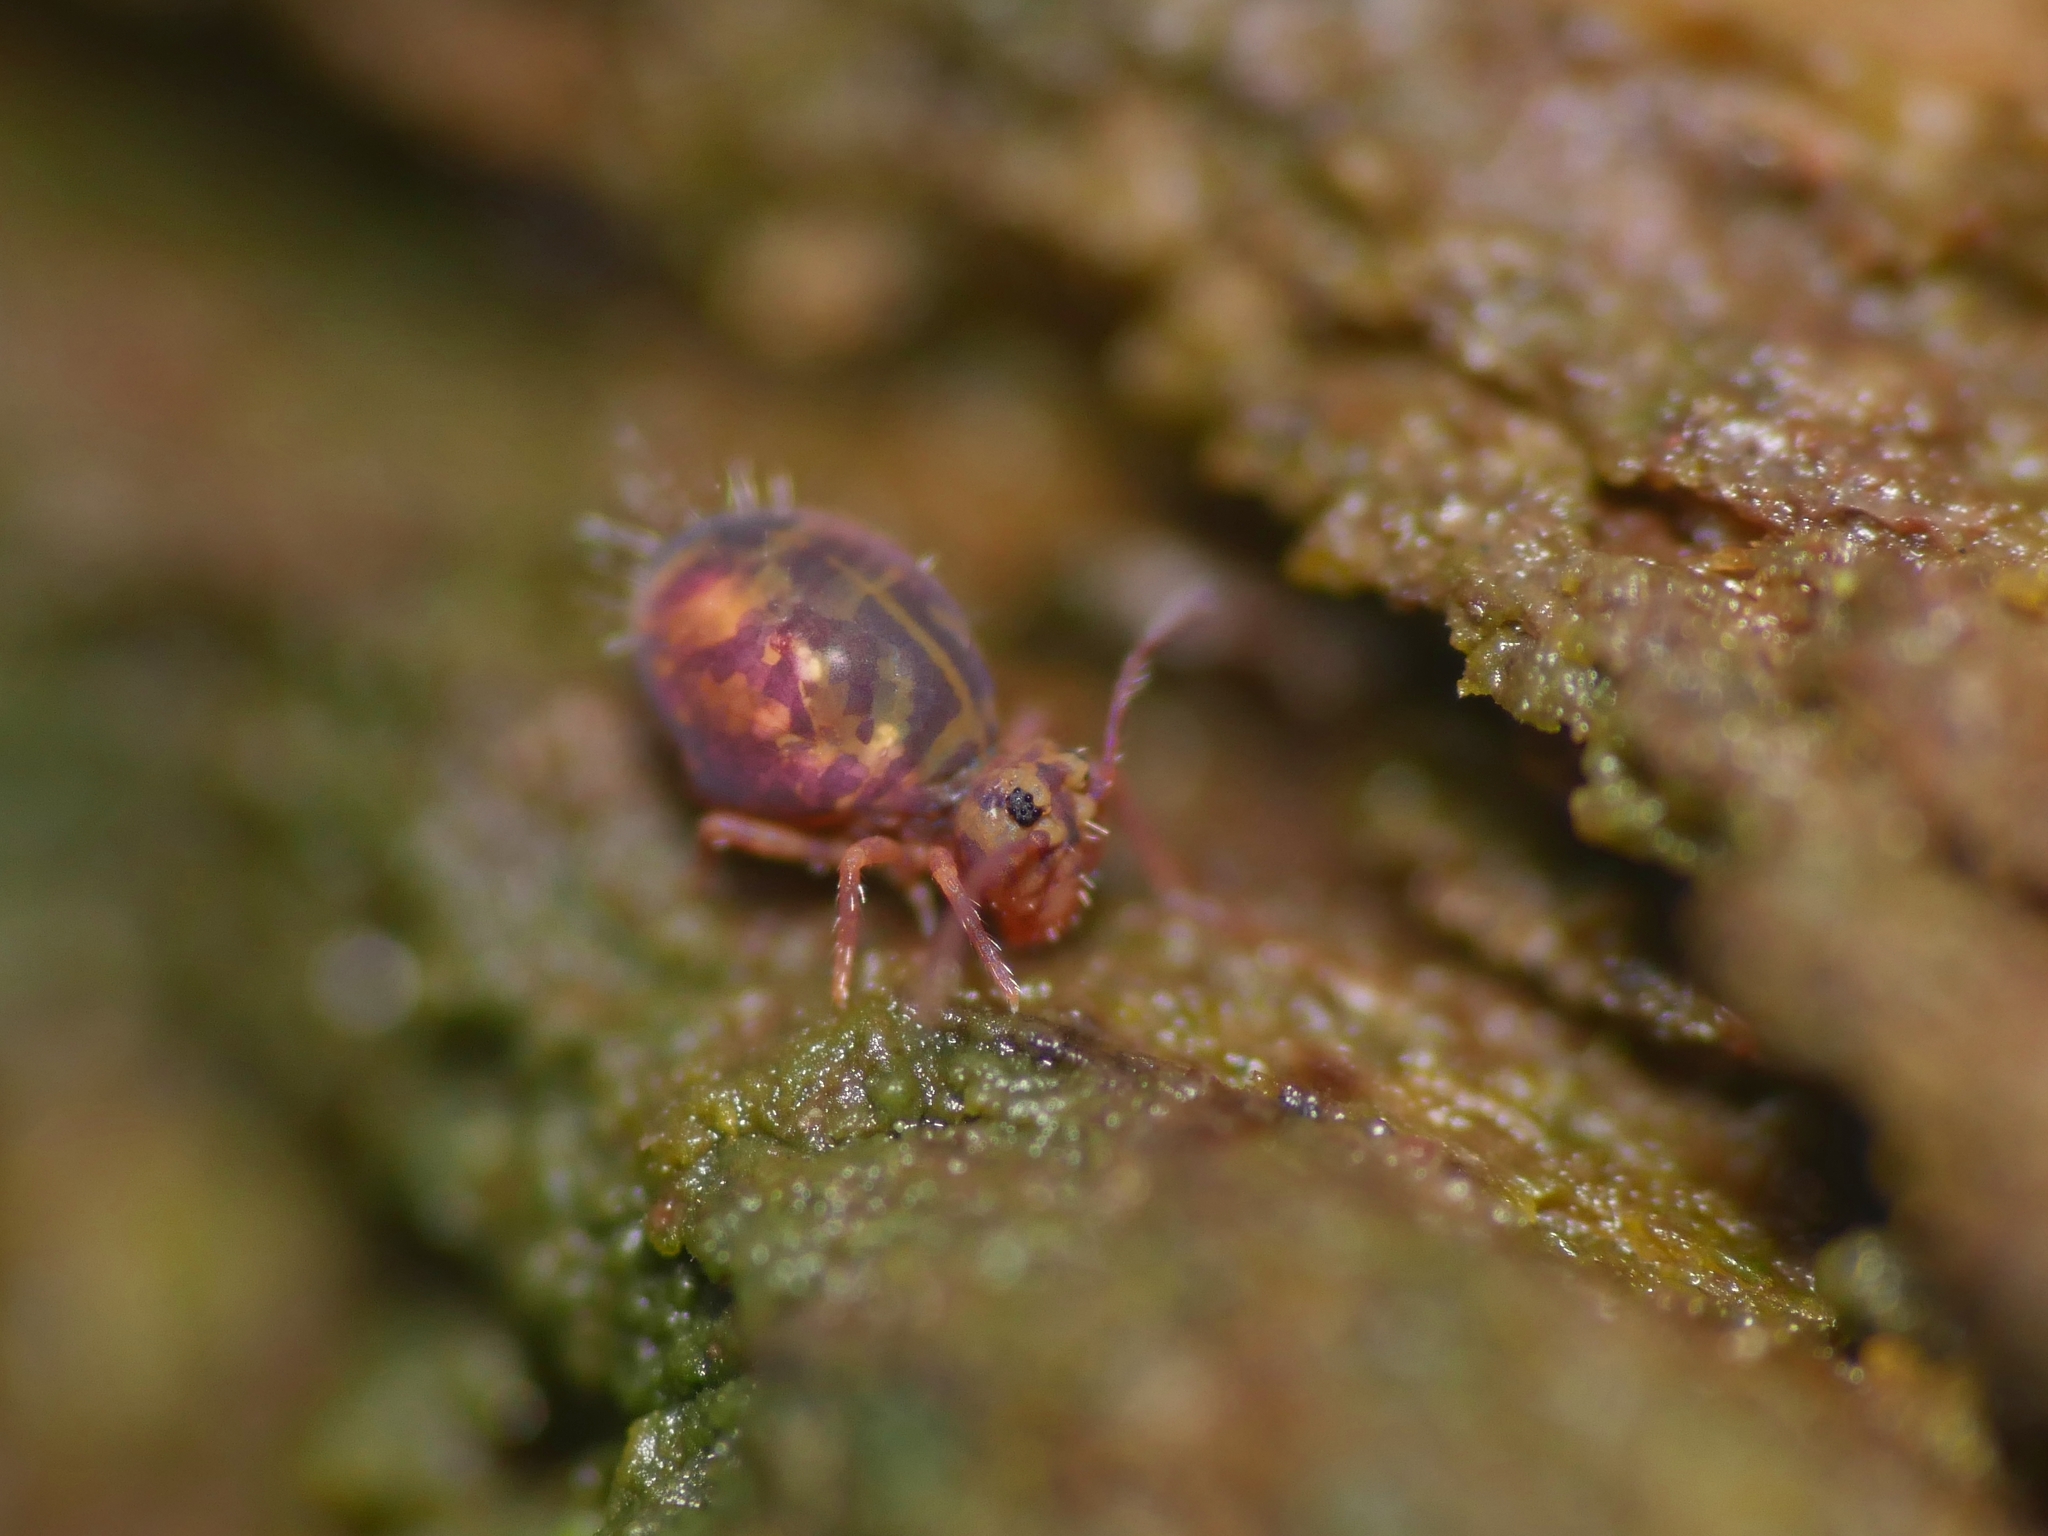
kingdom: Animalia
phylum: Arthropoda
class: Collembola
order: Symphypleona
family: Dicyrtomidae
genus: Dicyrtomina
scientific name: Dicyrtomina ornata
